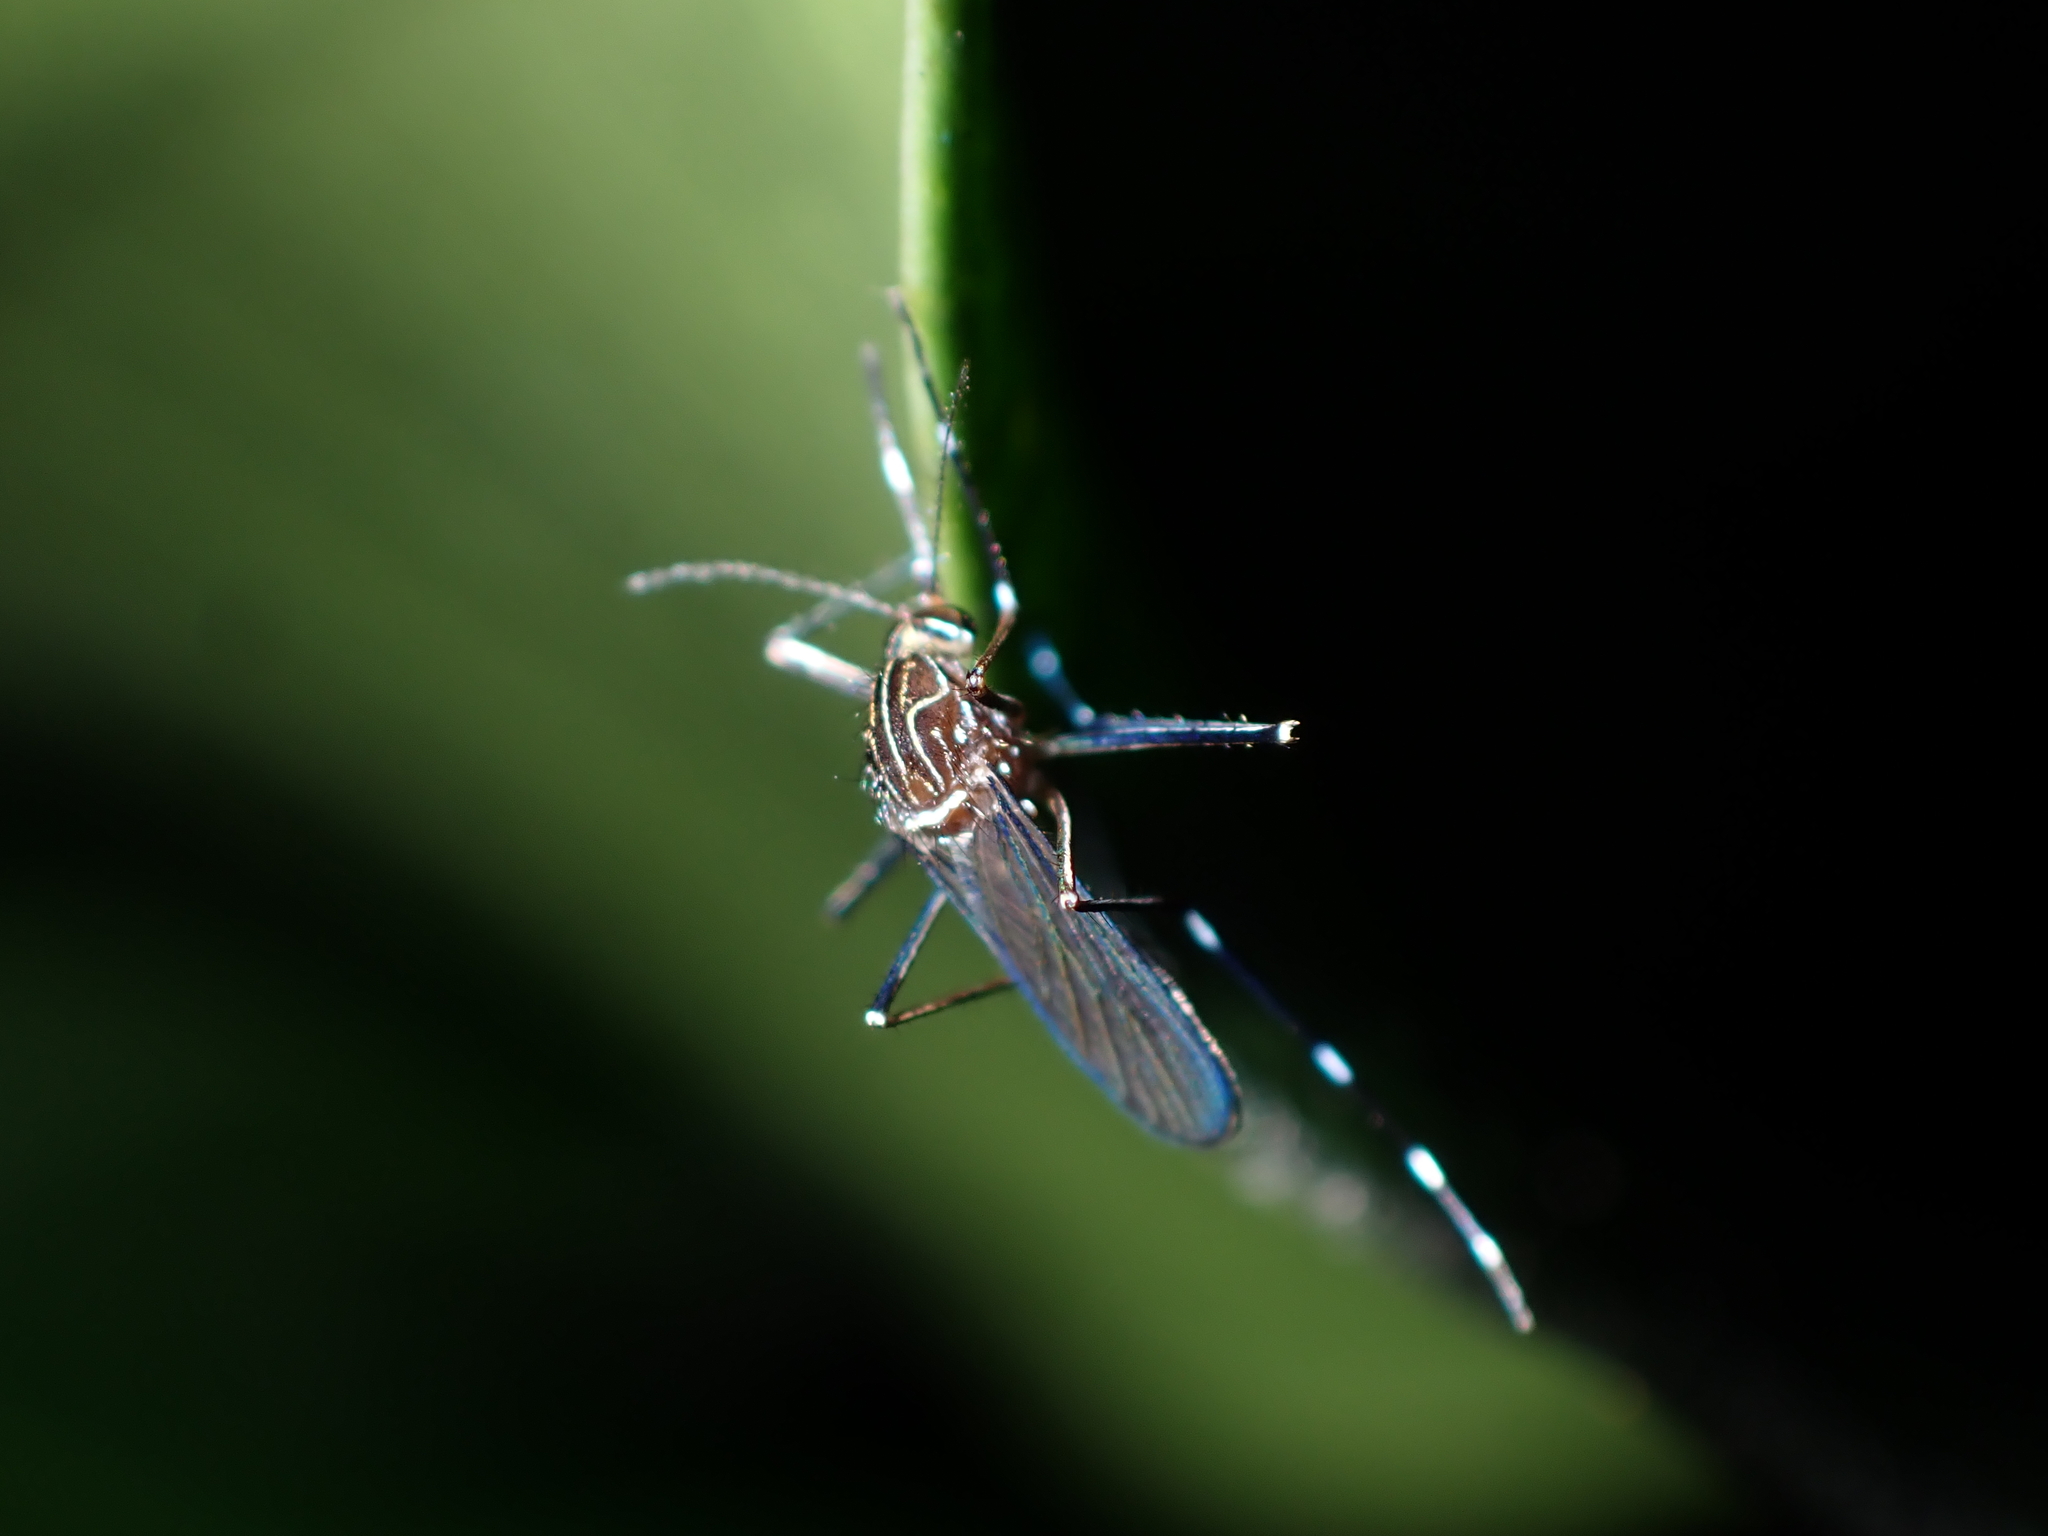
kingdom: Animalia
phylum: Arthropoda
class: Insecta
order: Diptera
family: Culicidae
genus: Aedes
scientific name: Aedes notoscriptus
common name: Australian backyard mosquito
